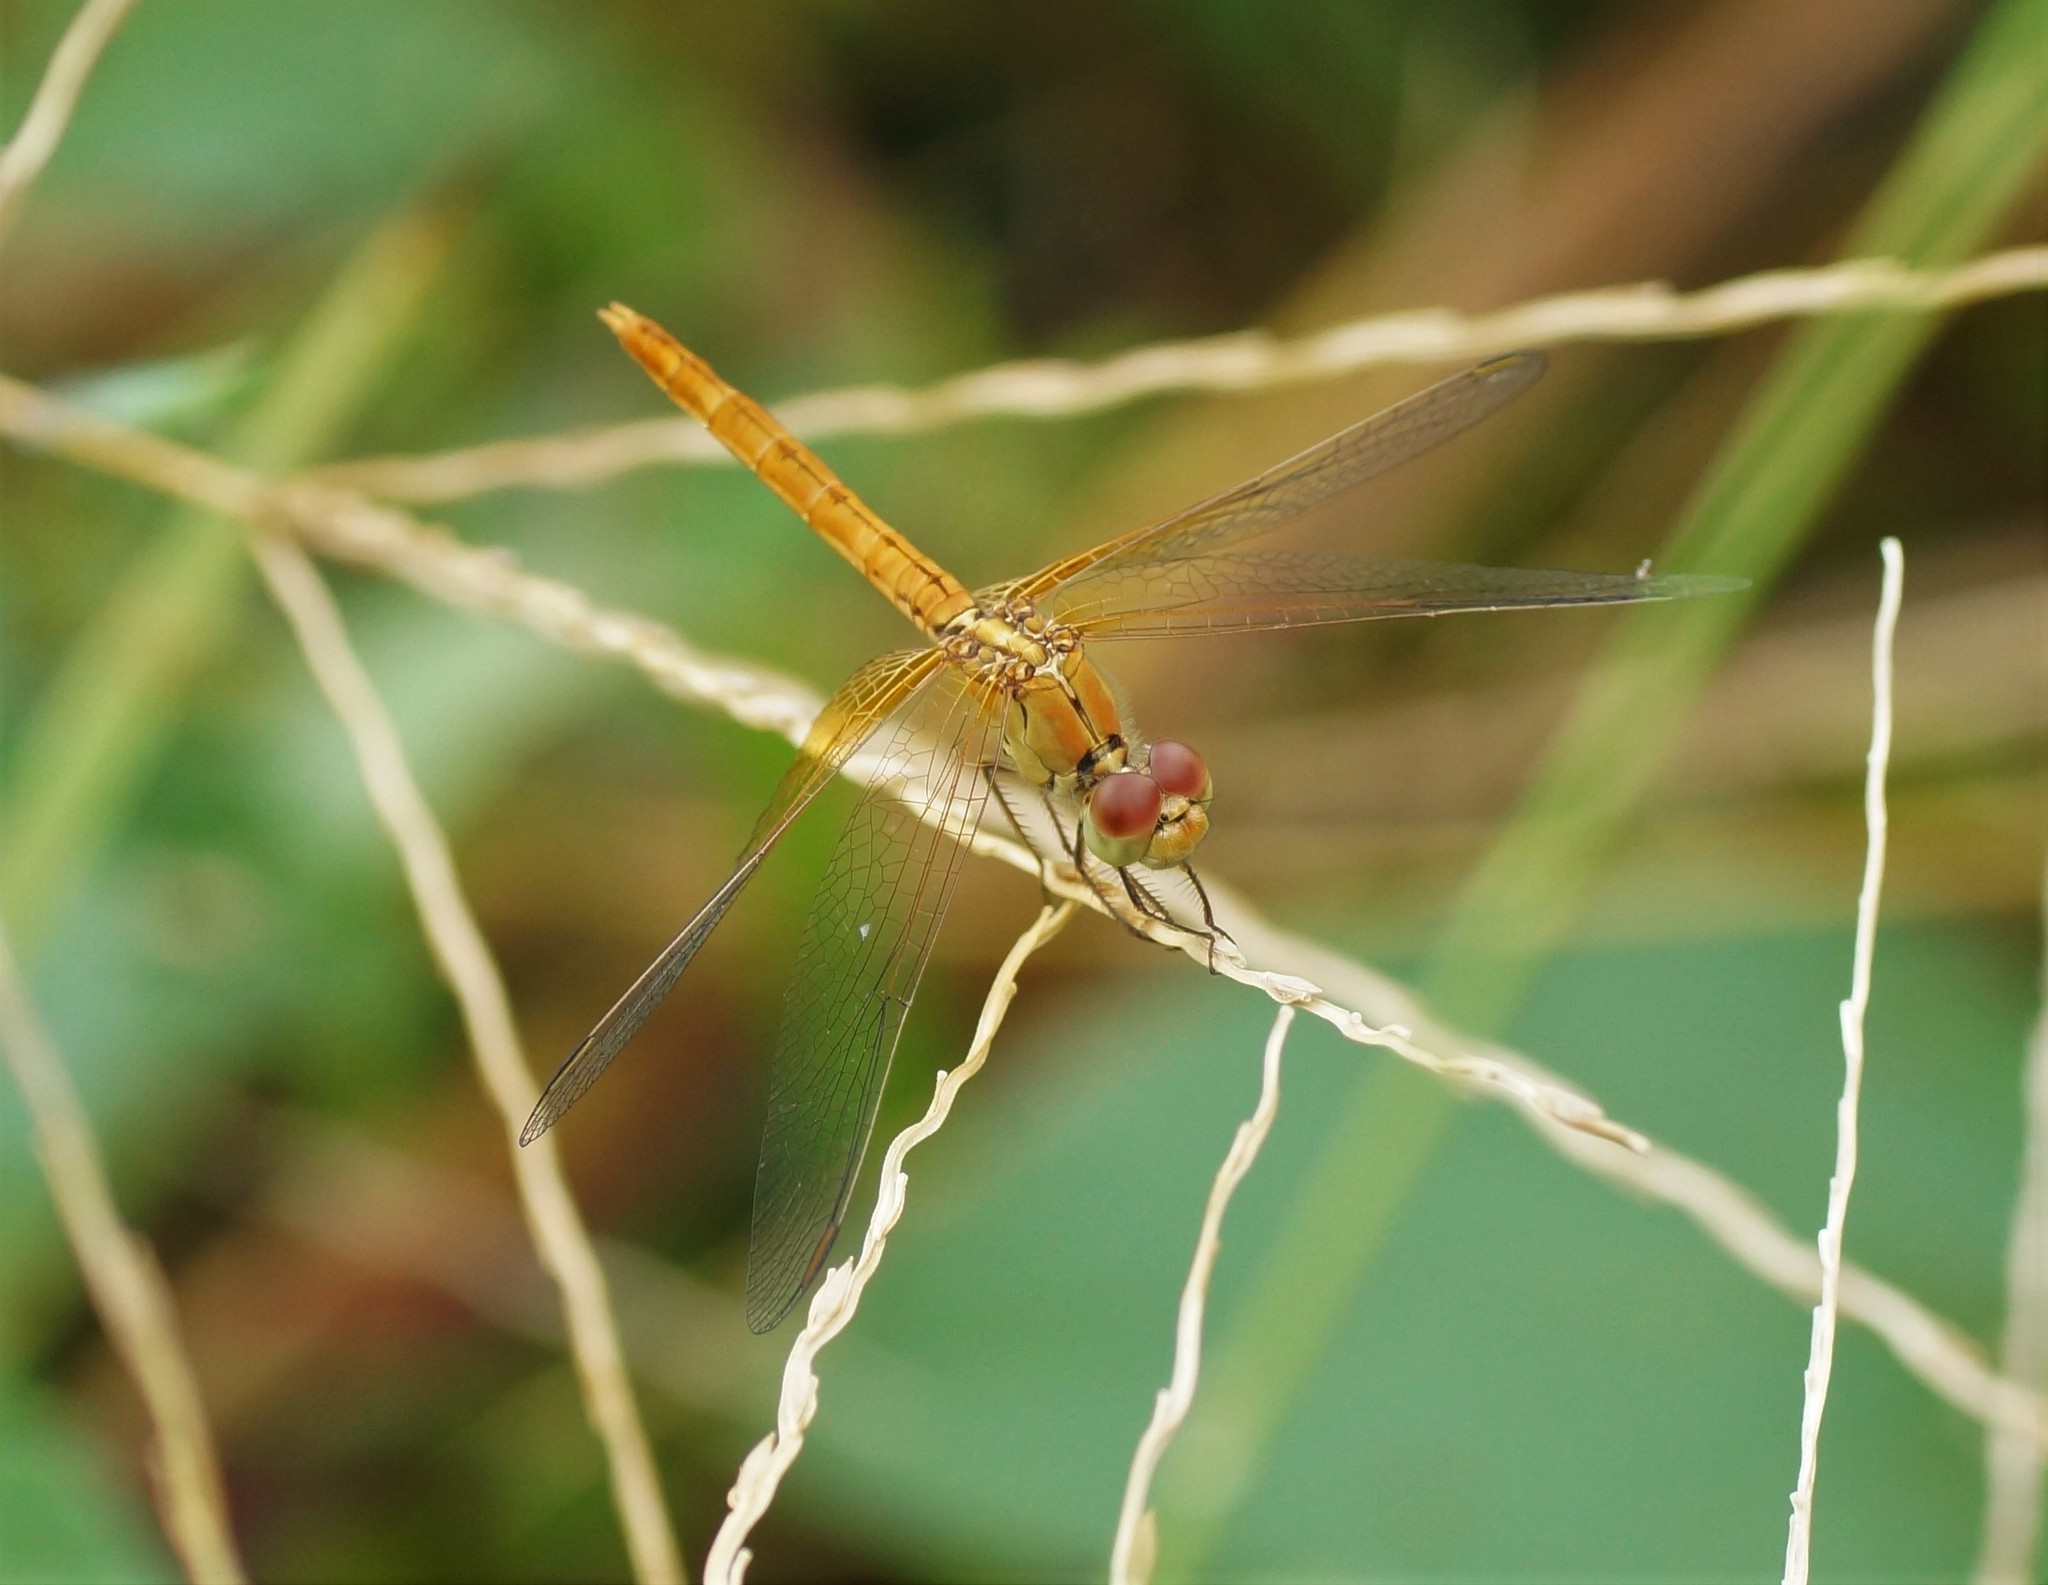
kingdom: Animalia
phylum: Arthropoda
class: Insecta
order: Odonata
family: Libellulidae
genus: Diplacodes
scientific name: Diplacodes haematodes
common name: Scarlet percher
